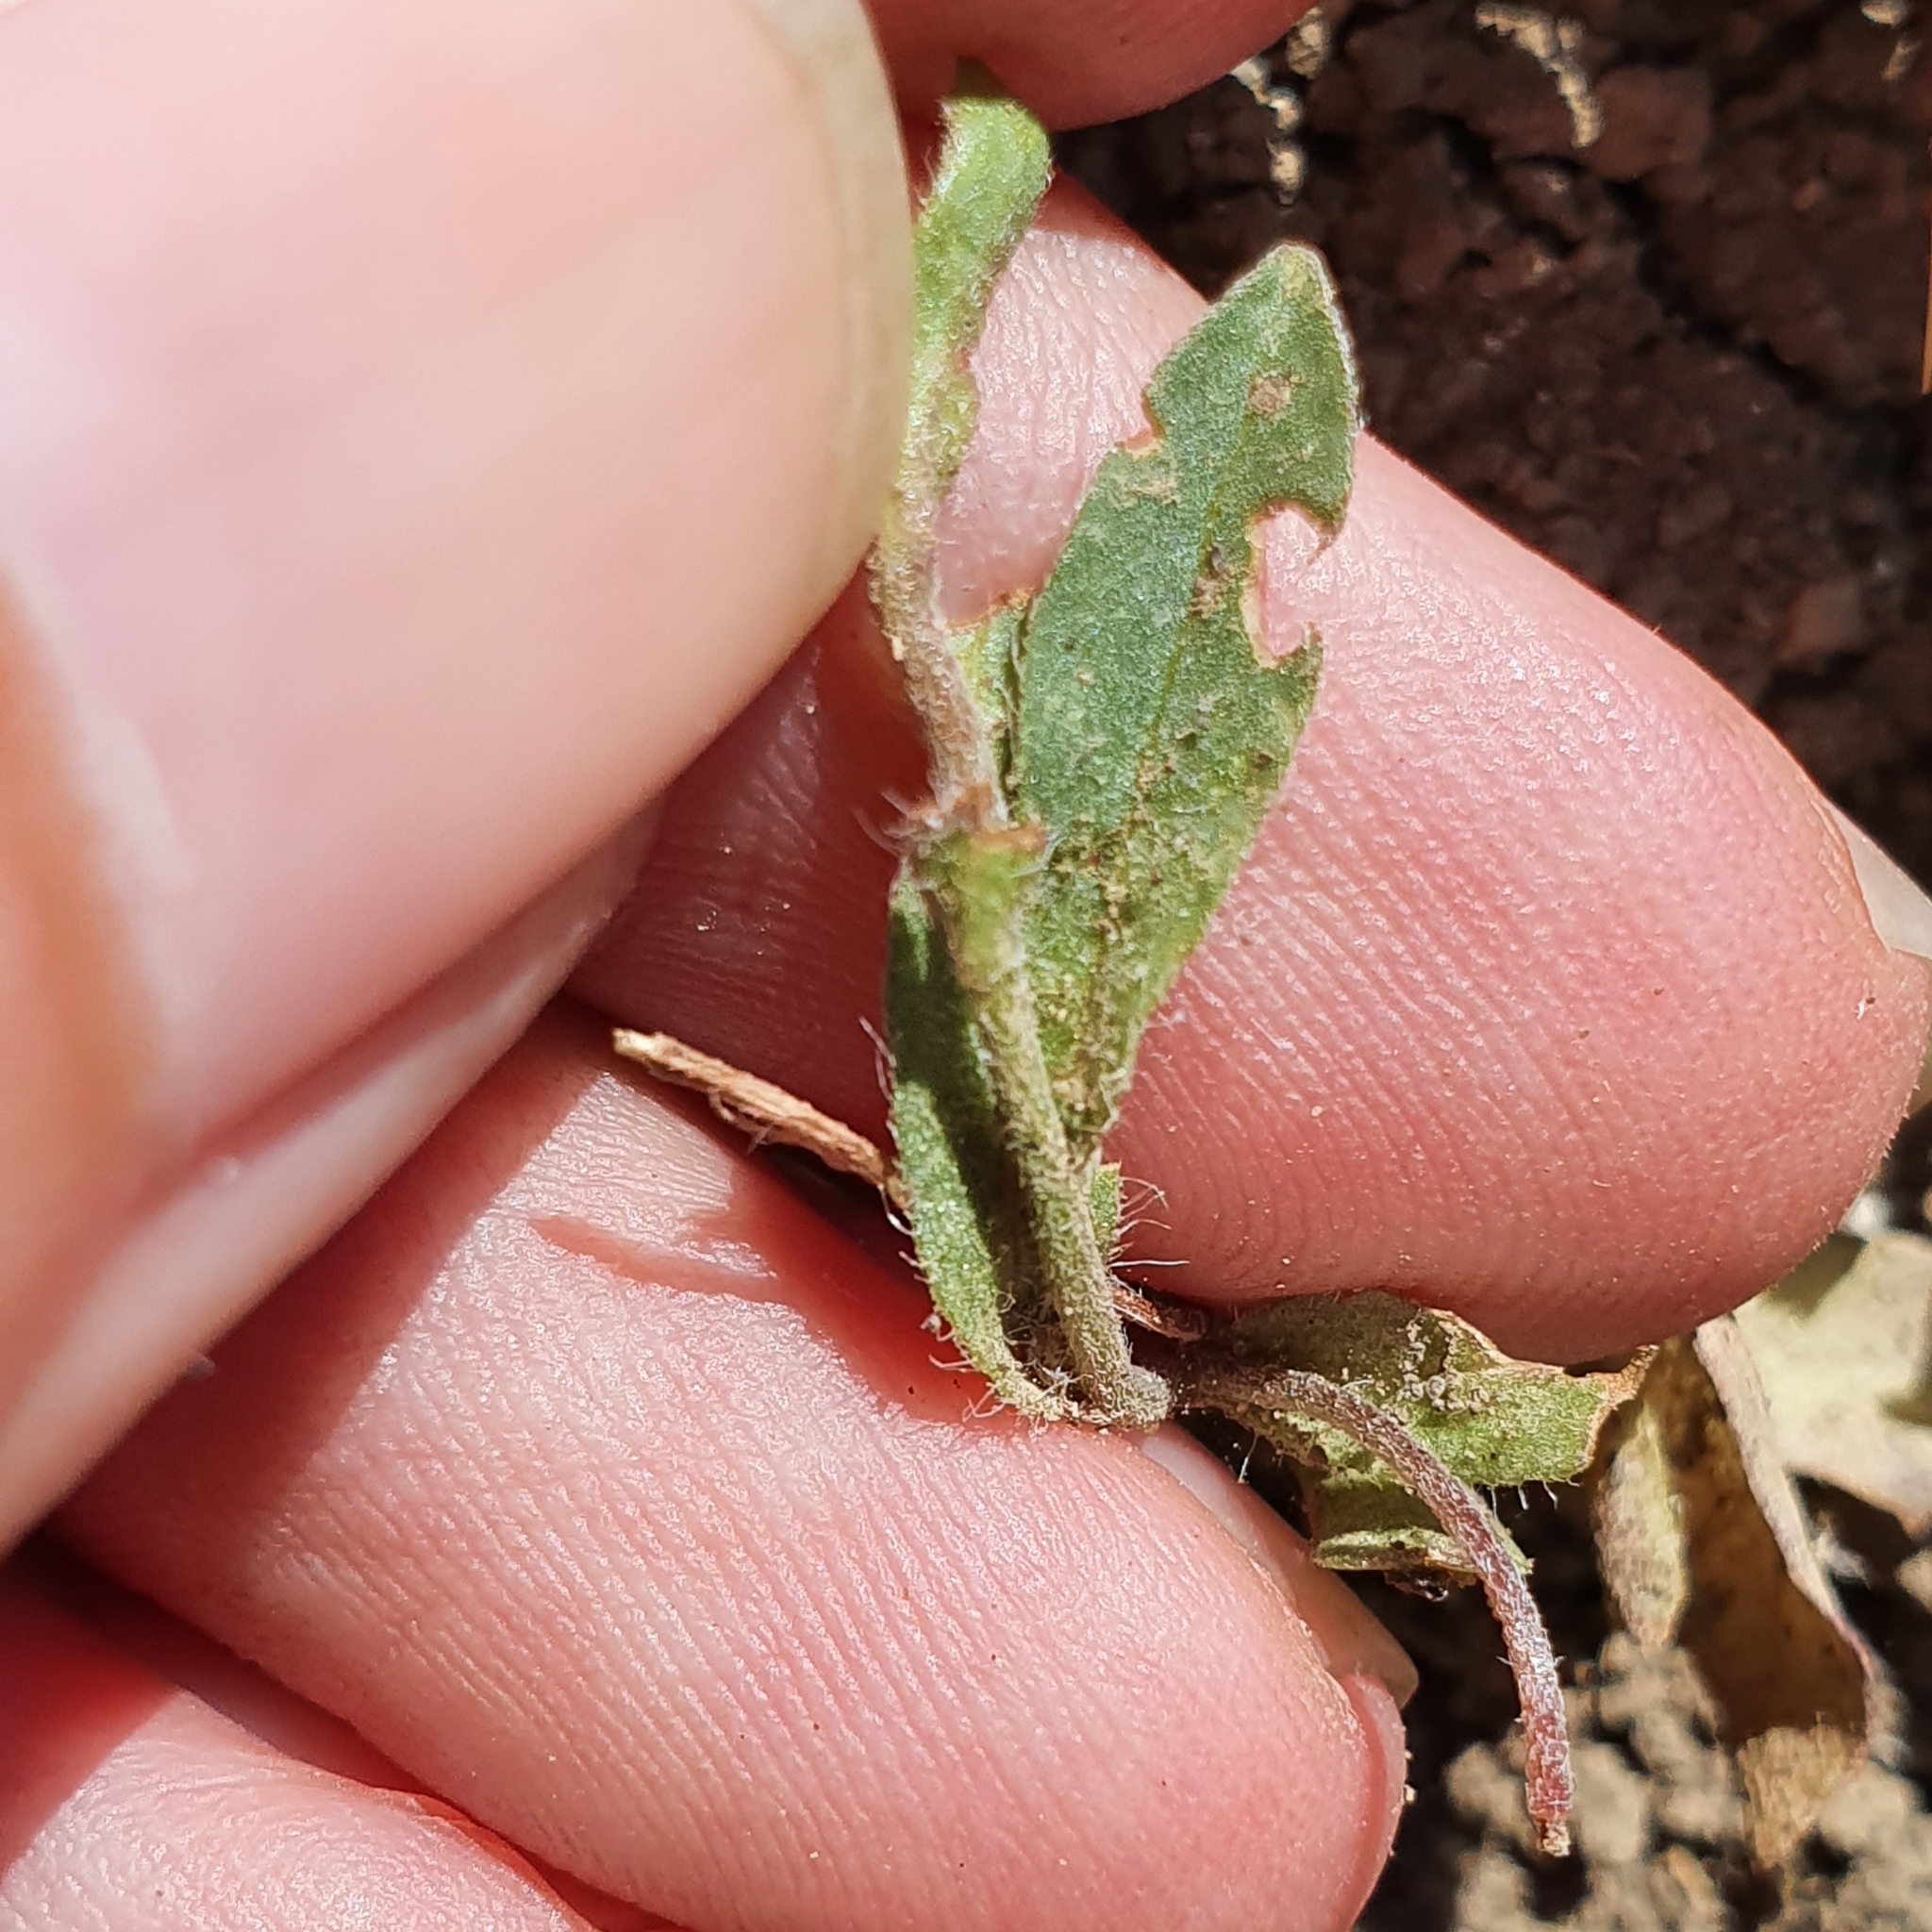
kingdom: Plantae
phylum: Tracheophyta
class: Magnoliopsida
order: Solanales
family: Convolvulaceae
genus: Convolvulus
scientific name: Convolvulus tricolor
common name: Dwarf morning-glory
